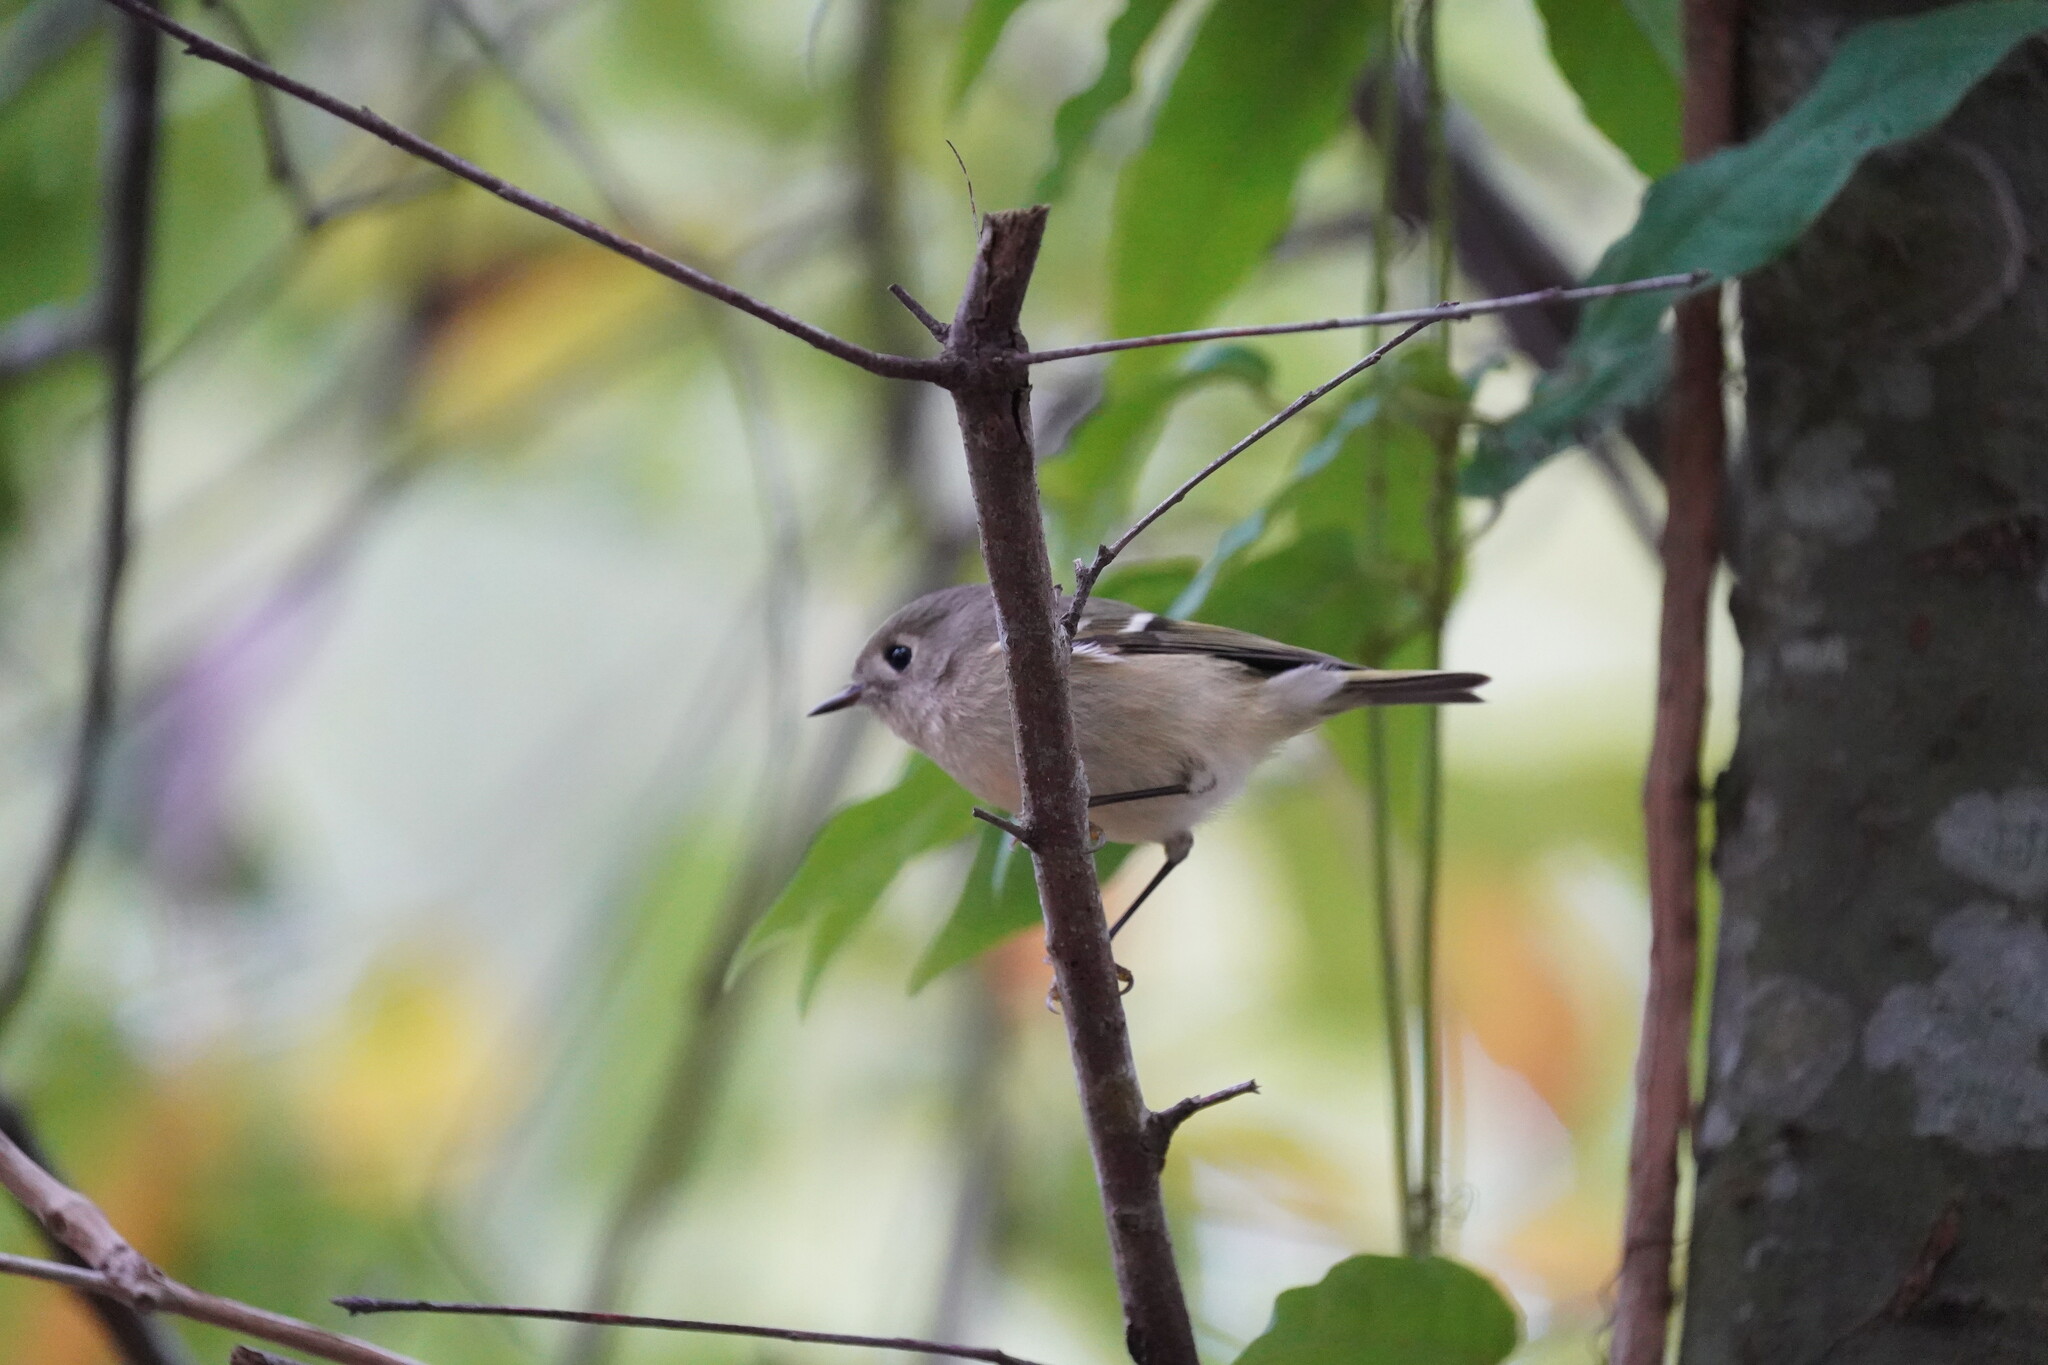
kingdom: Animalia
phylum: Chordata
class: Aves
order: Passeriformes
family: Regulidae
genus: Regulus
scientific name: Regulus calendula
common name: Ruby-crowned kinglet
